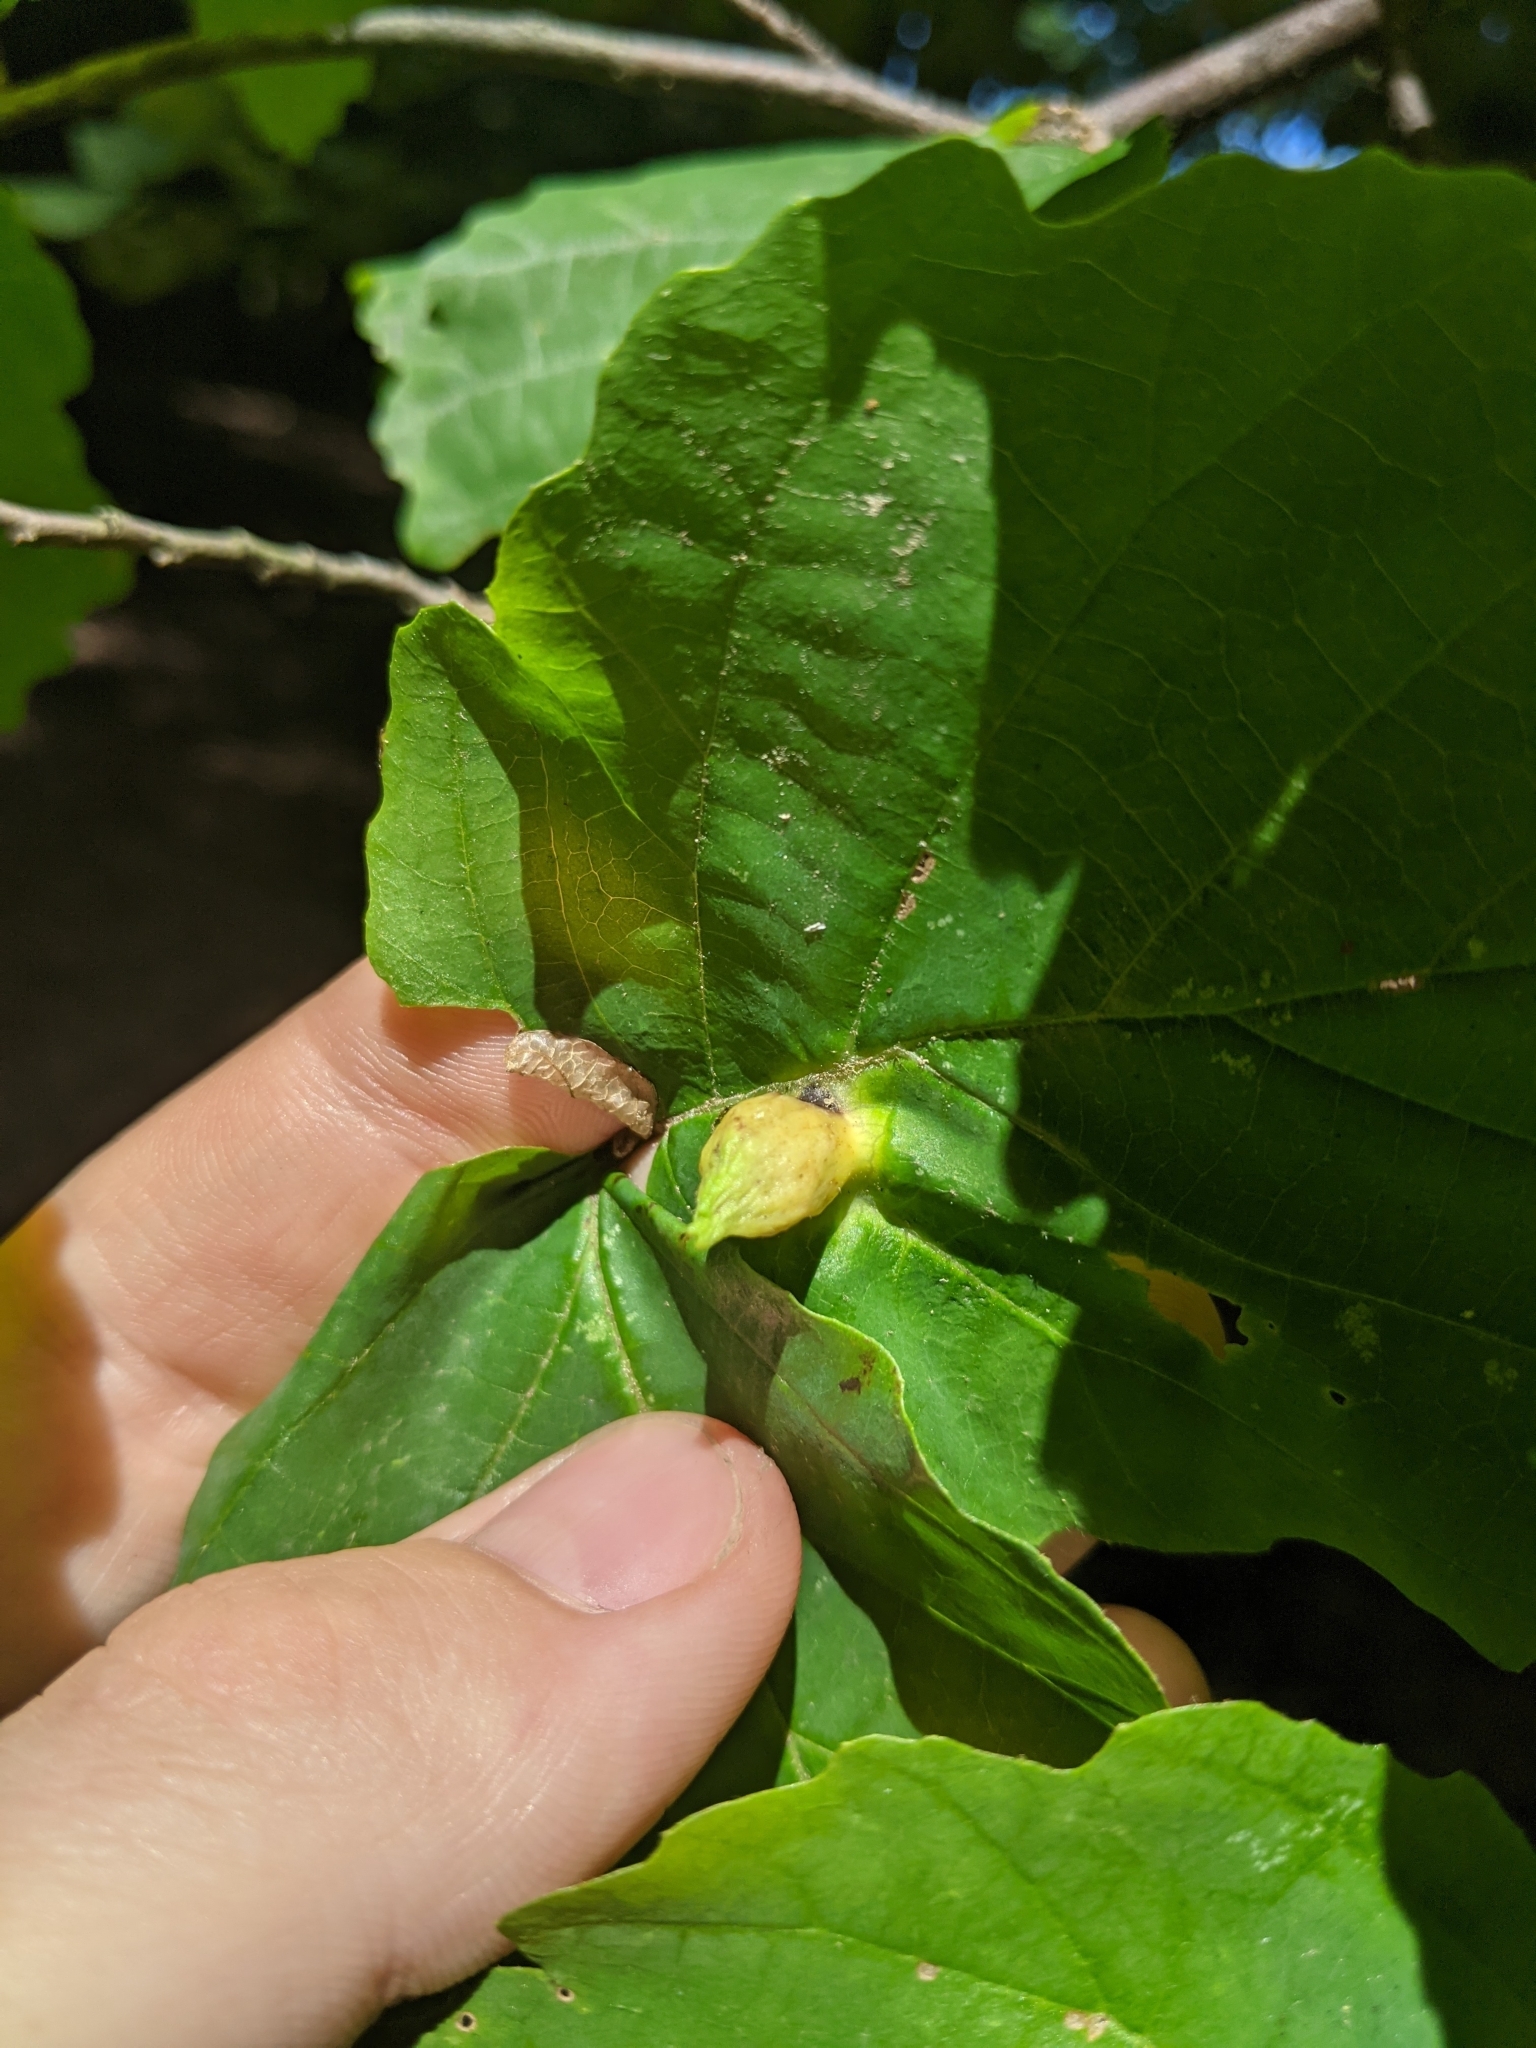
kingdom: Animalia
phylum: Arthropoda
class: Insecta
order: Hemiptera
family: Aphididae
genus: Hormaphis
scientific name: Hormaphis hamamelidis
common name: Witch-hazel cone gall aphid
